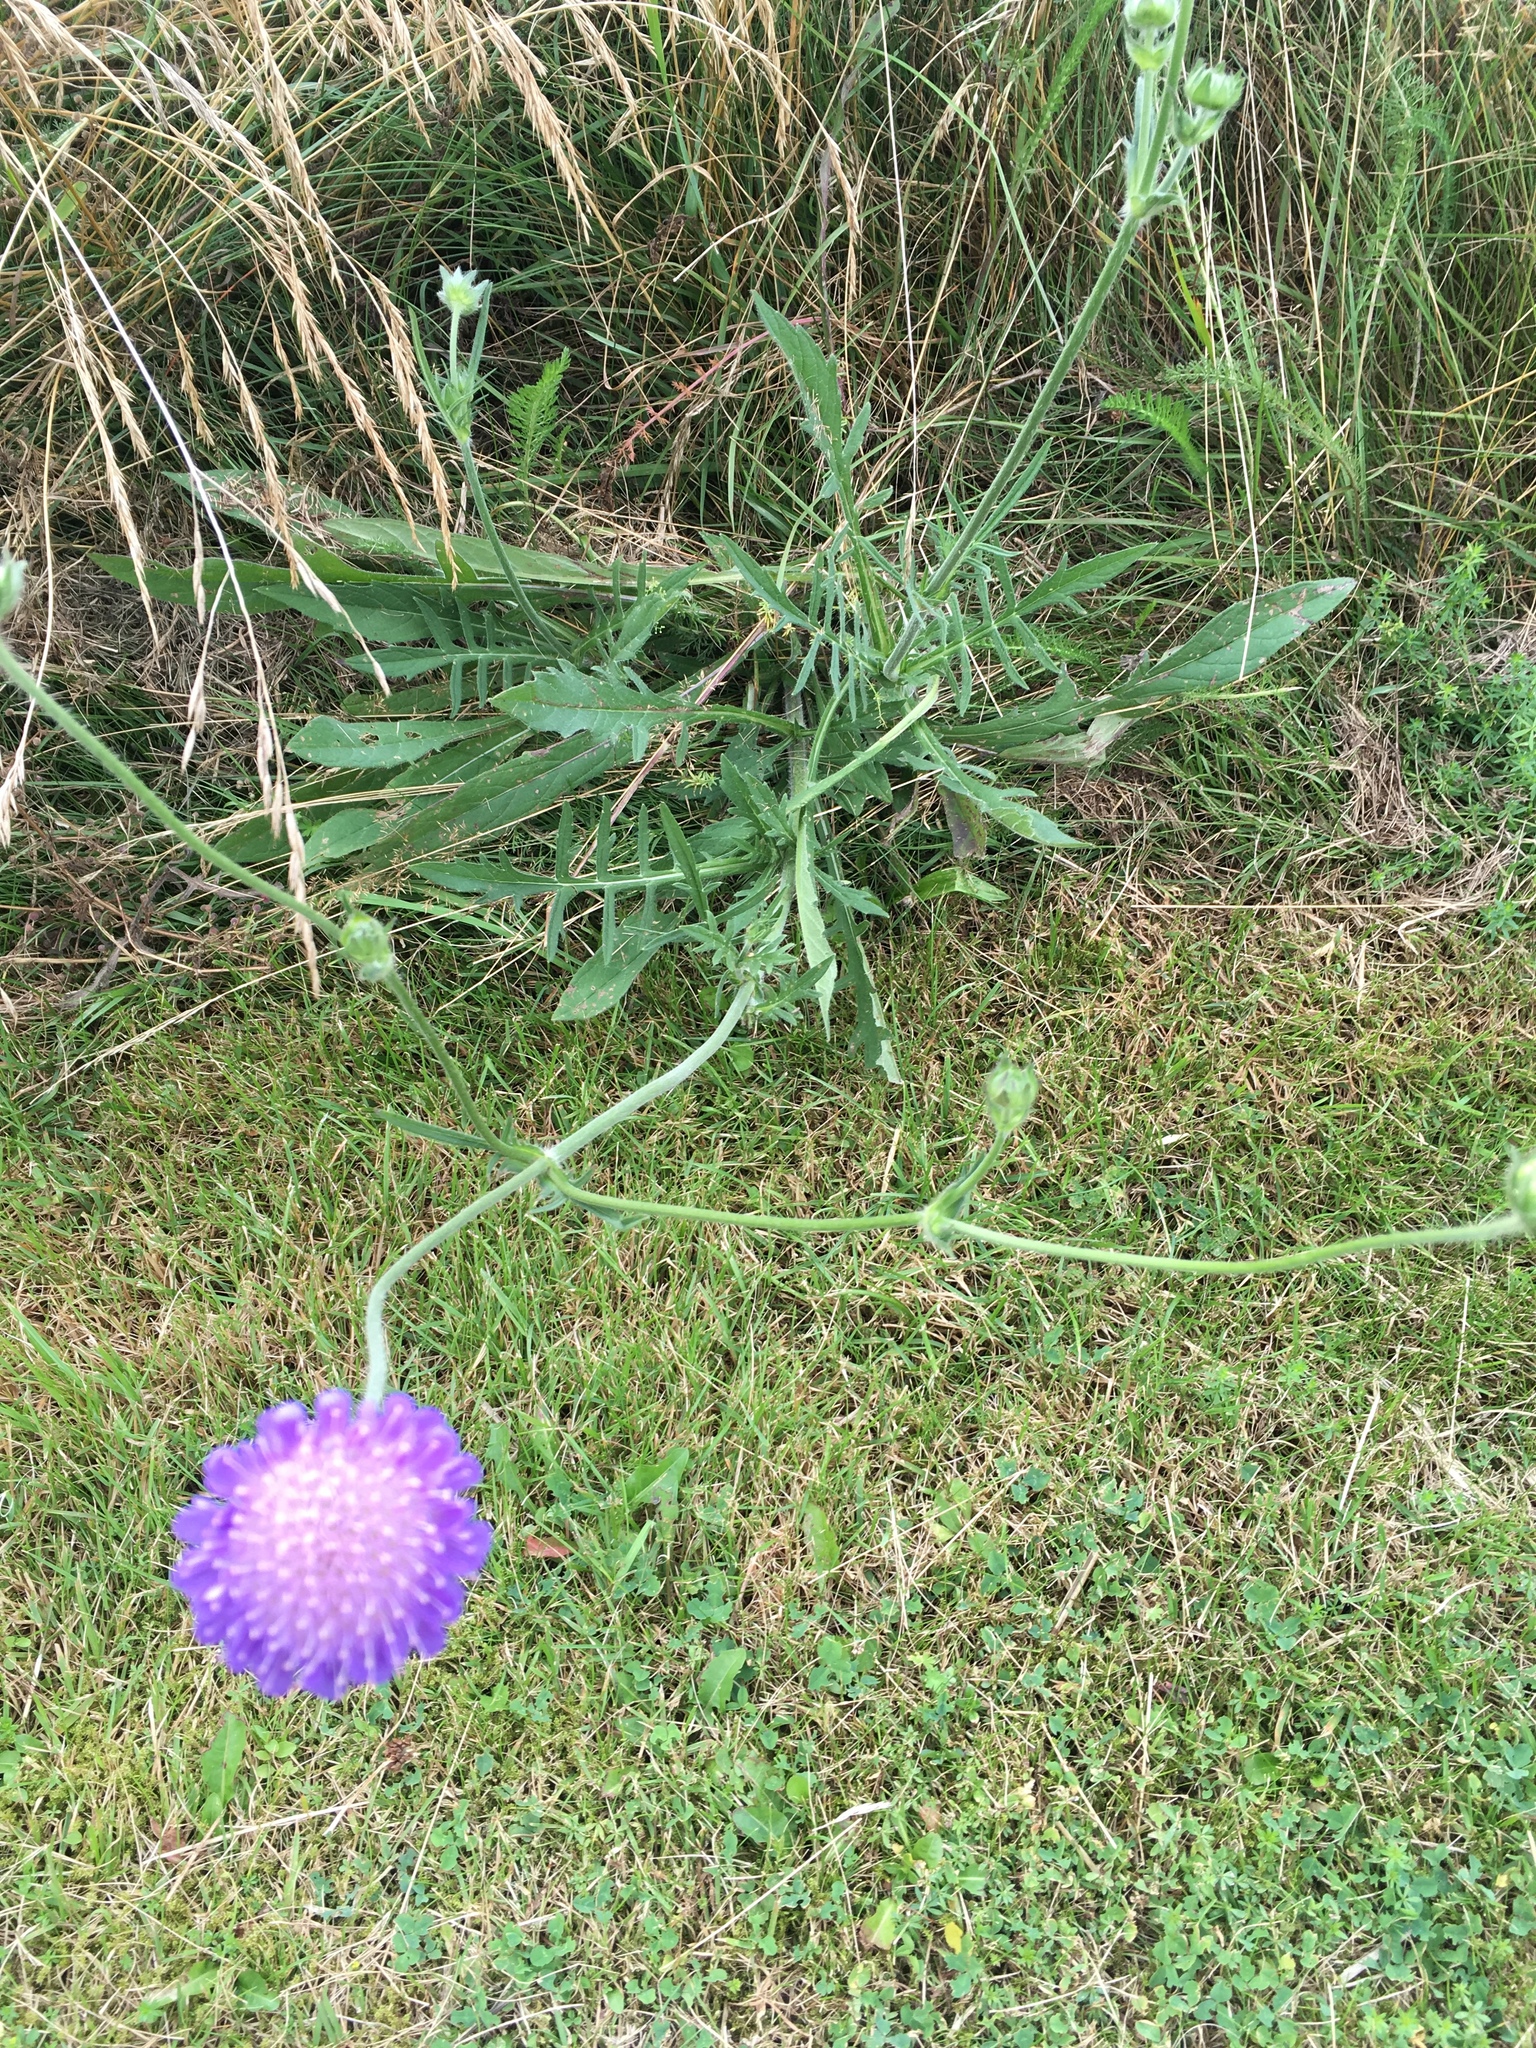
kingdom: Plantae
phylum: Tracheophyta
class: Magnoliopsida
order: Dipsacales
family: Caprifoliaceae
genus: Knautia
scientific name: Knautia arvensis
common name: Field scabiosa
